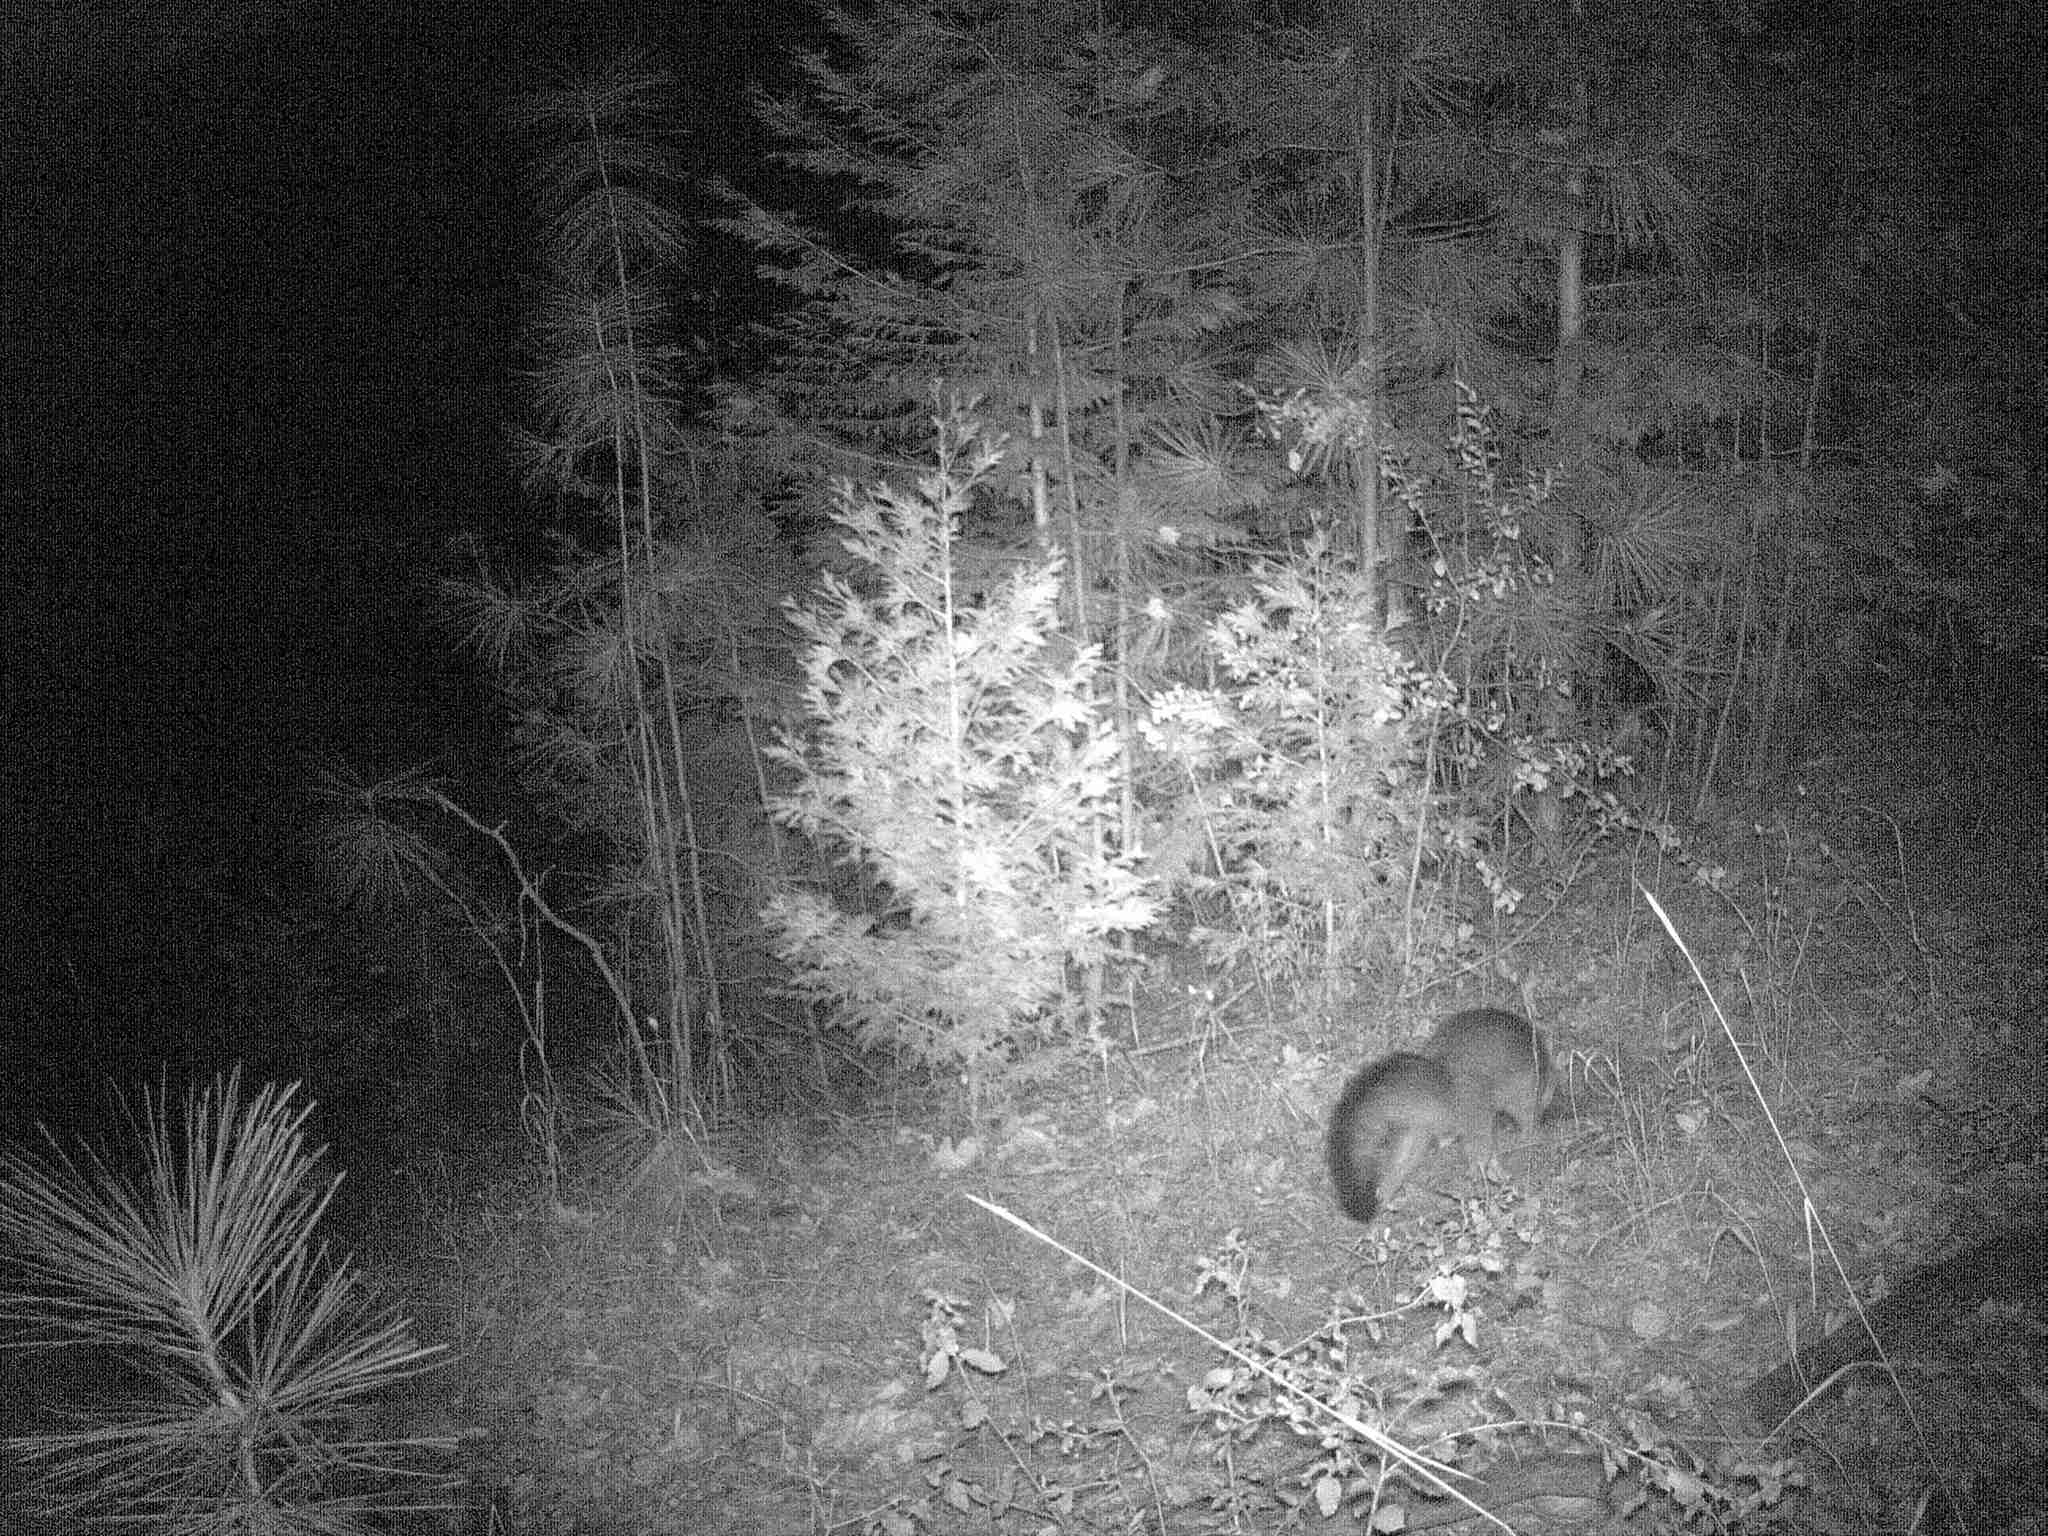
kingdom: Animalia
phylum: Chordata
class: Mammalia
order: Carnivora
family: Canidae
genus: Urocyon
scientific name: Urocyon cinereoargenteus
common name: Gray fox
